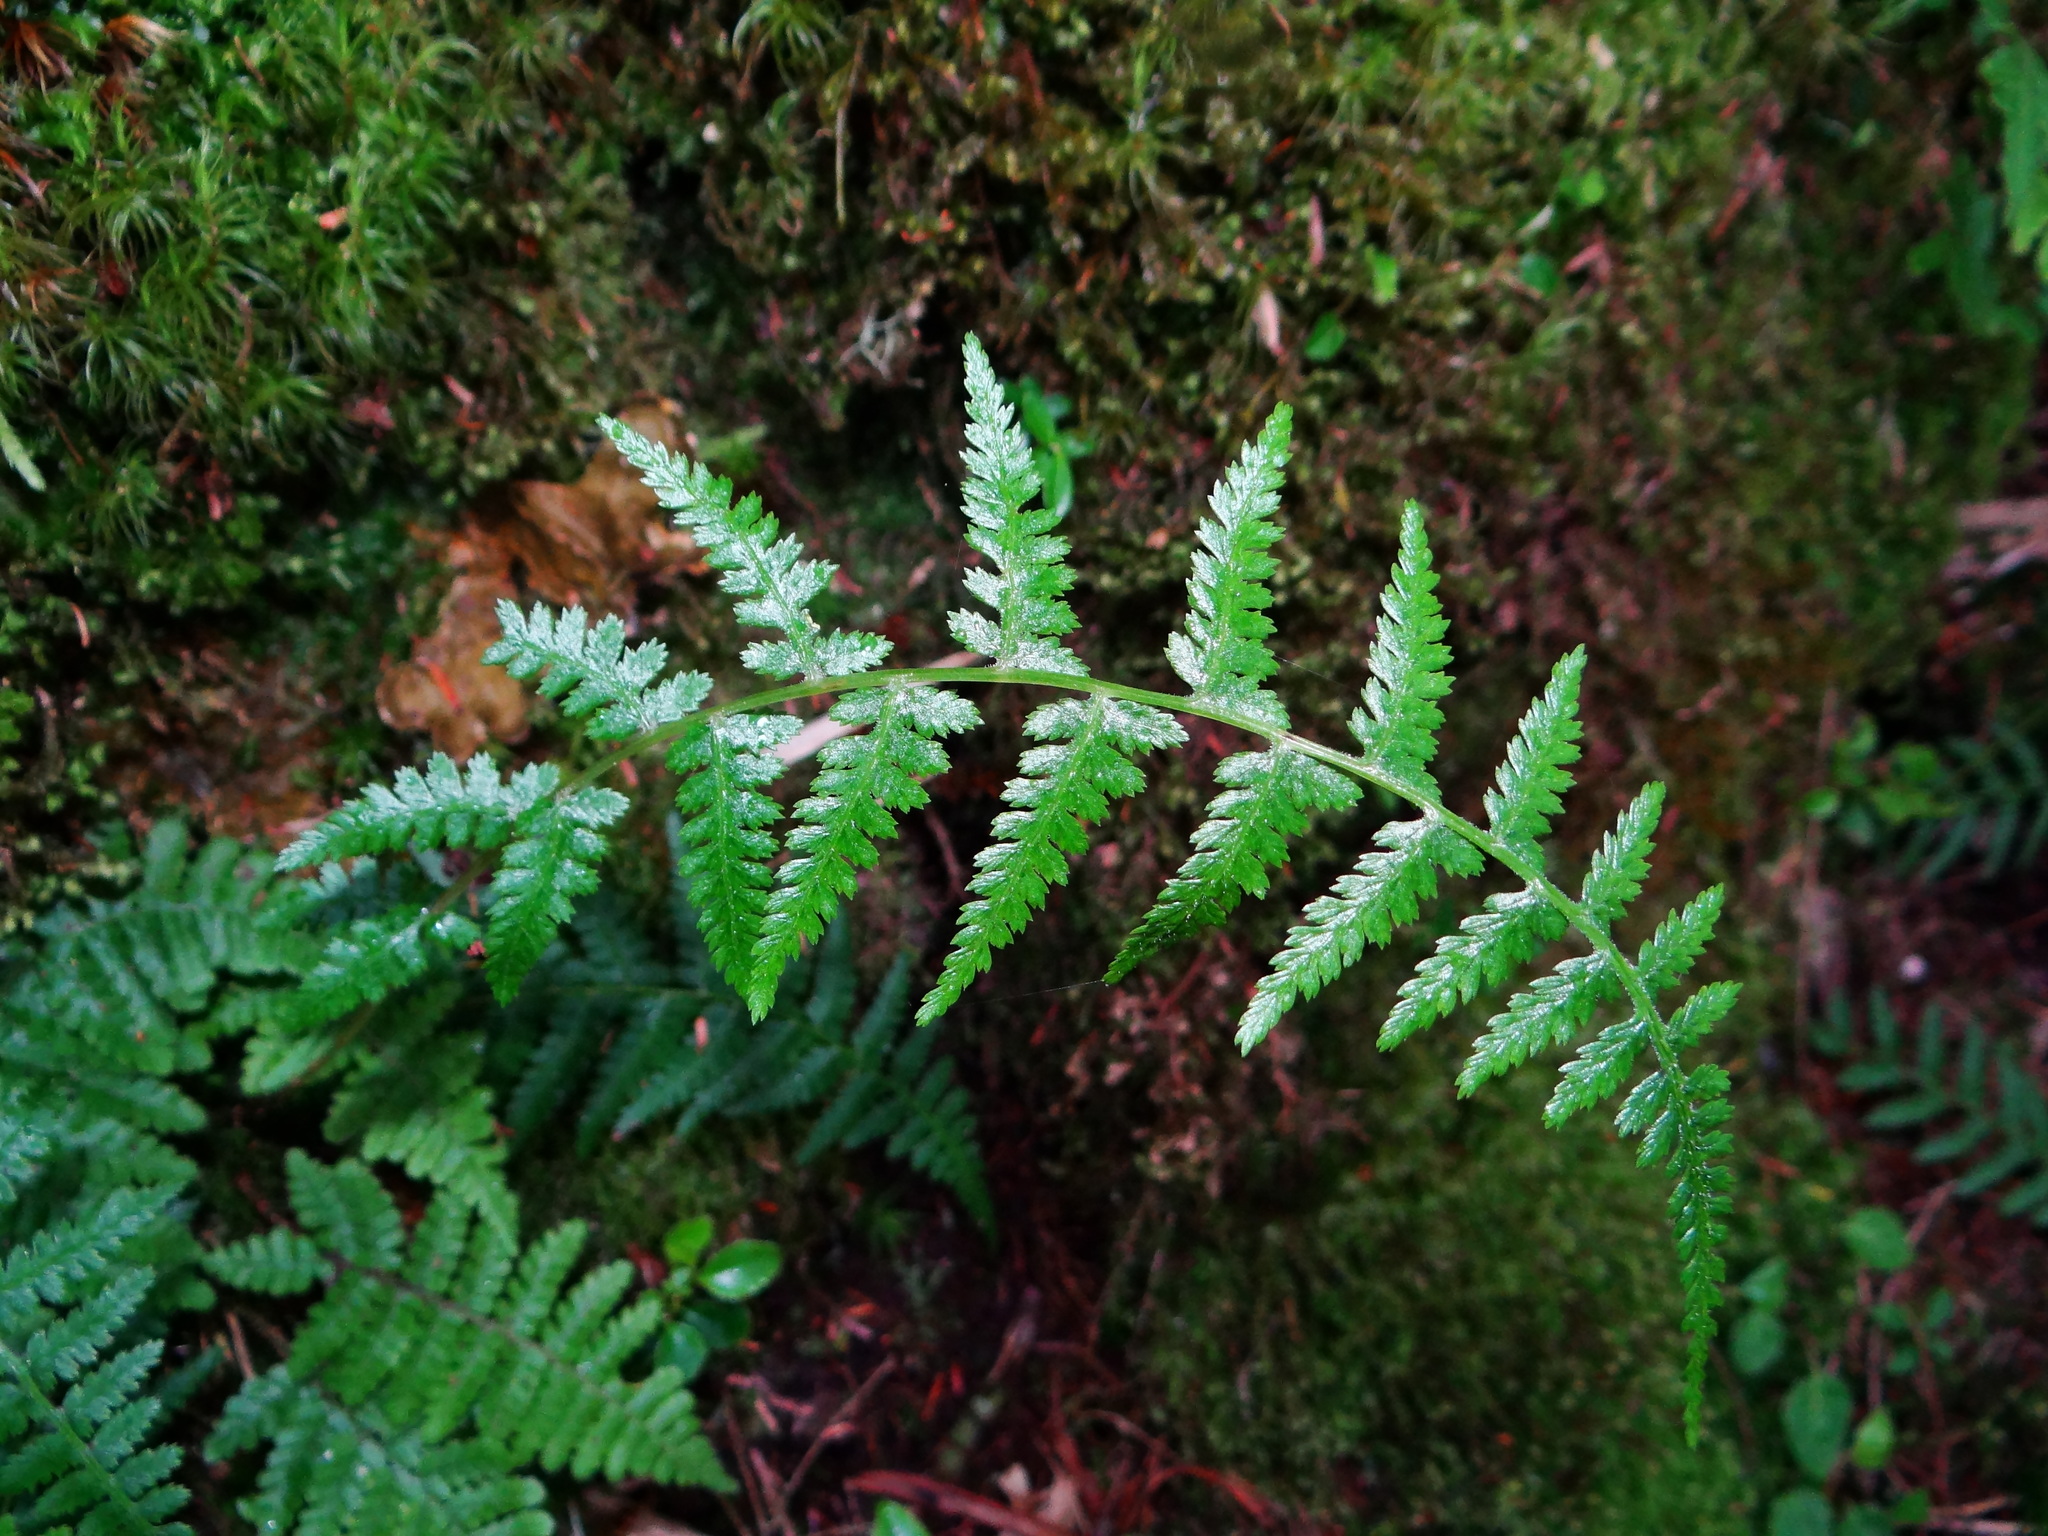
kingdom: Plantae
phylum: Tracheophyta
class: Polypodiopsida
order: Polypodiales
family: Athyriaceae
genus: Athyrium
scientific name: Athyrium oppositipennum
